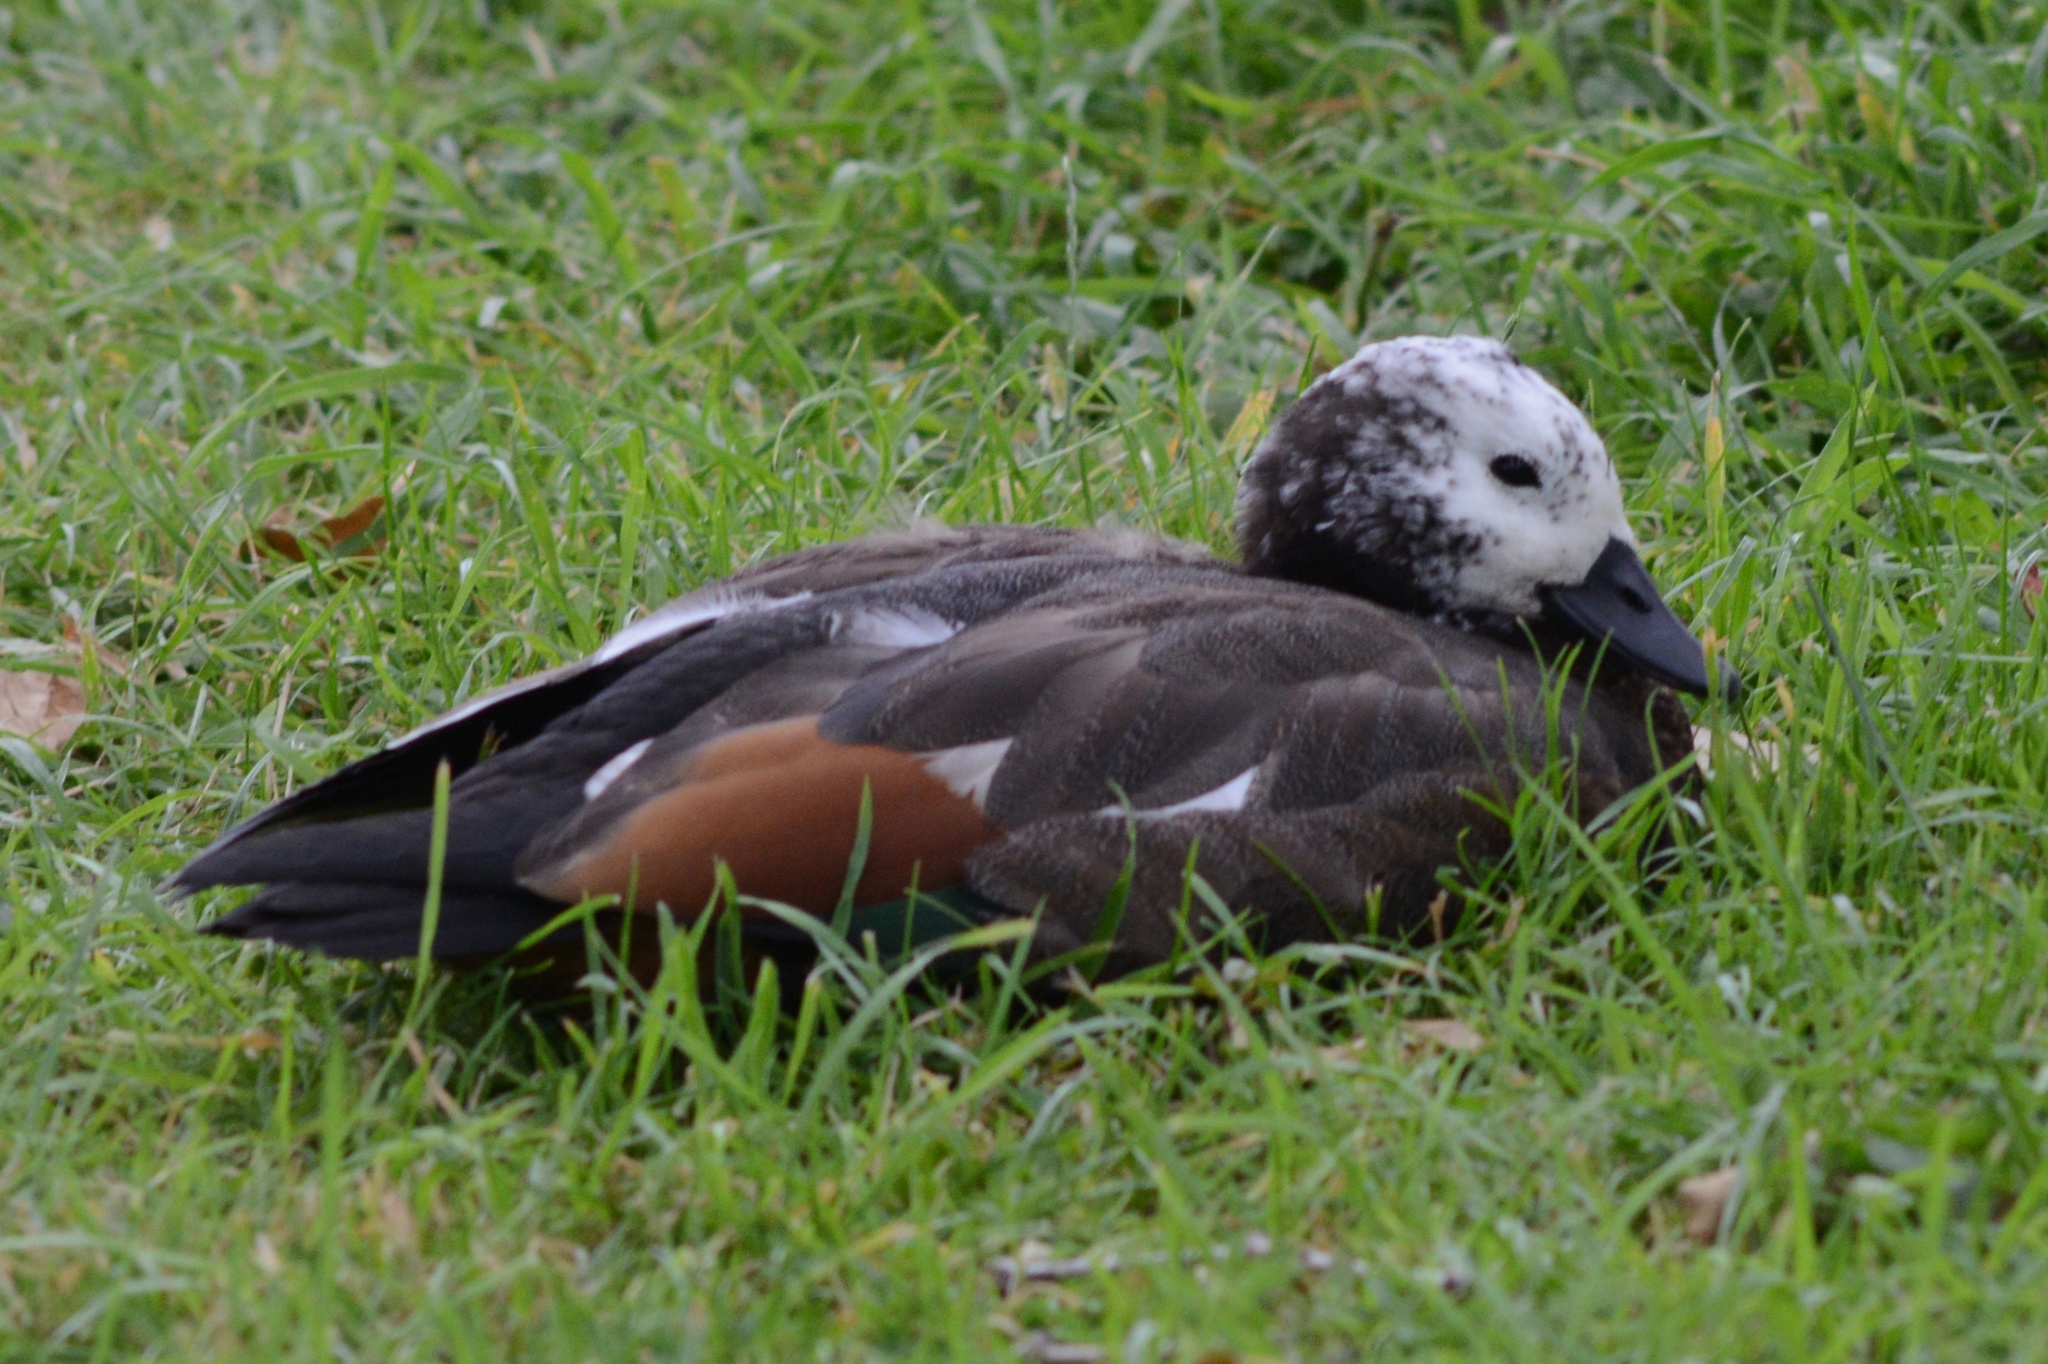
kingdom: Animalia
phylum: Chordata
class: Aves
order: Anseriformes
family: Anatidae
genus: Tadorna
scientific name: Tadorna variegata
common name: Paradise shelduck
